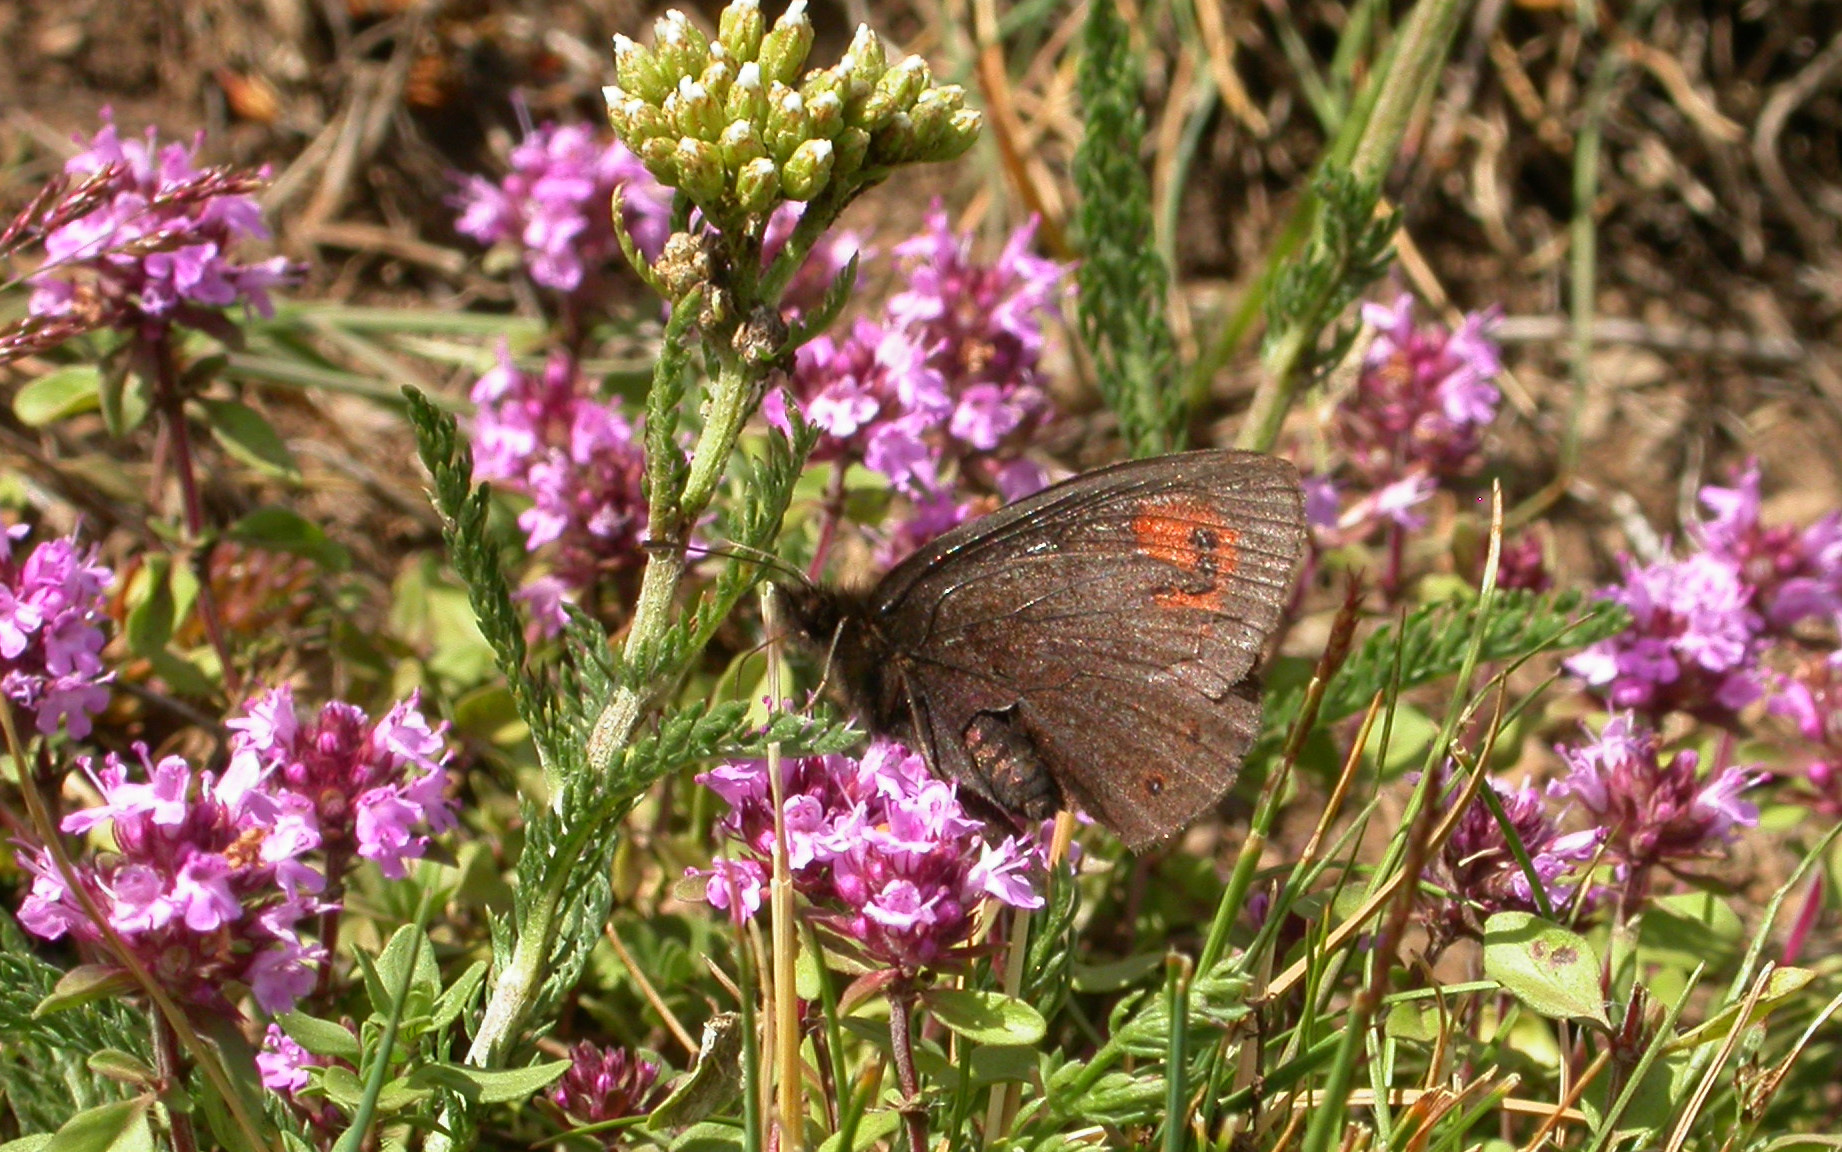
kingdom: Animalia
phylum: Arthropoda
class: Insecta
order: Lepidoptera
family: Nymphalidae
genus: Erebia
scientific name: Erebia meolans
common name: Piedmont ringlet
